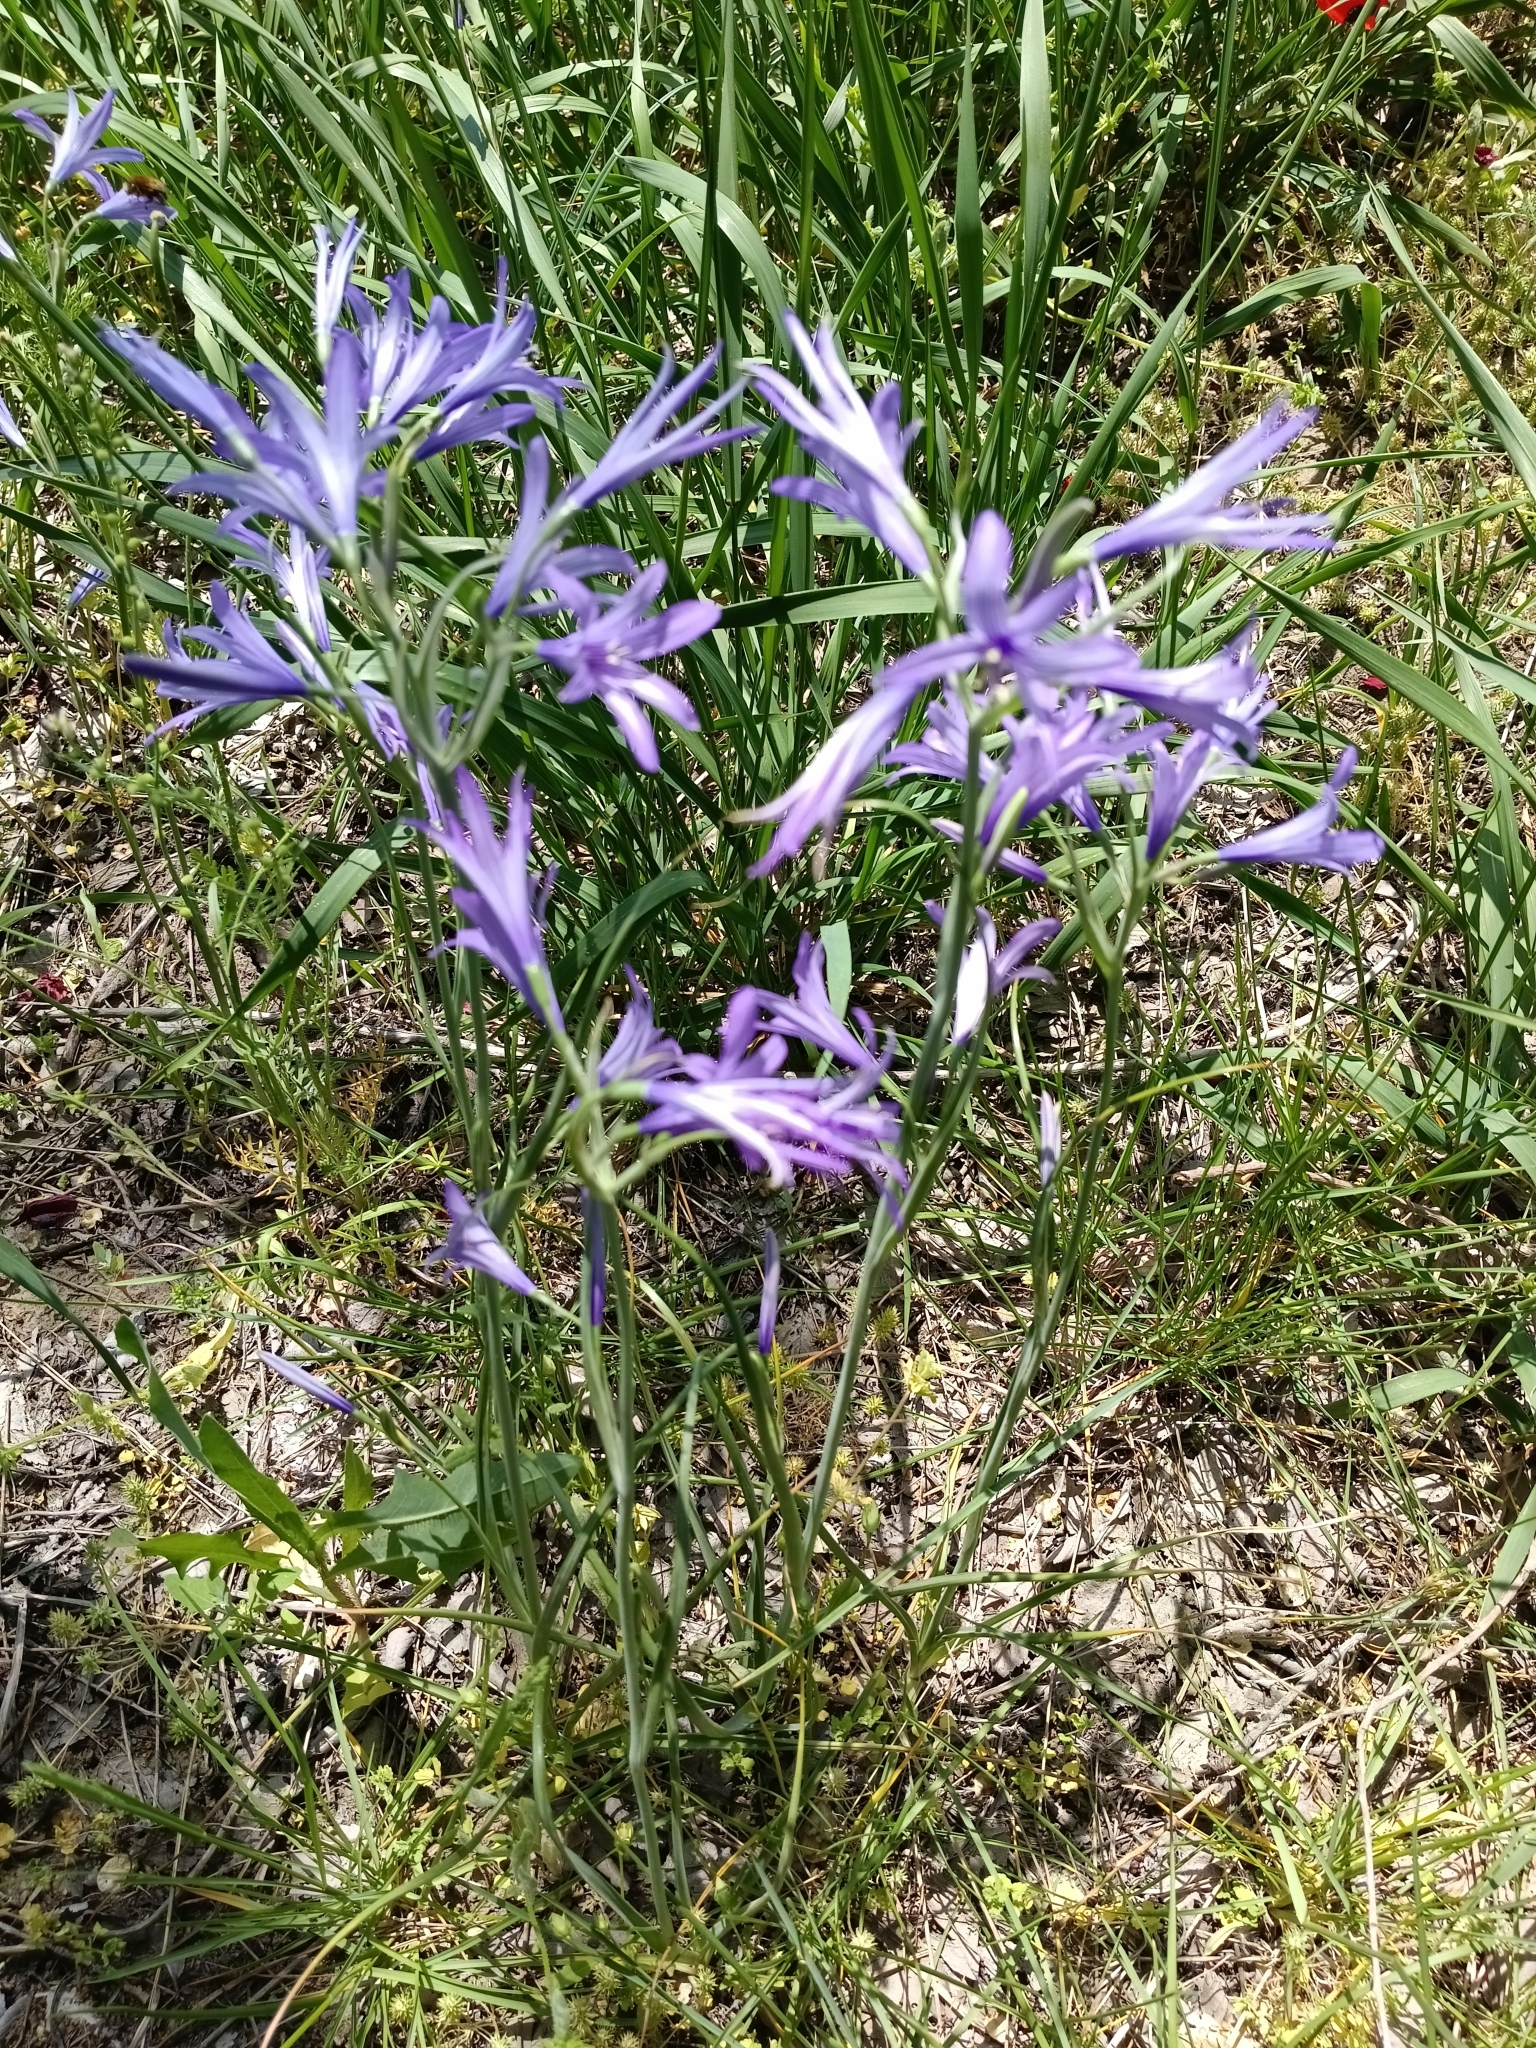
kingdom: Plantae
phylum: Tracheophyta
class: Liliopsida
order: Asparagales
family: Ixioliriaceae
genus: Ixiolirion
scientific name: Ixiolirion tataricum
